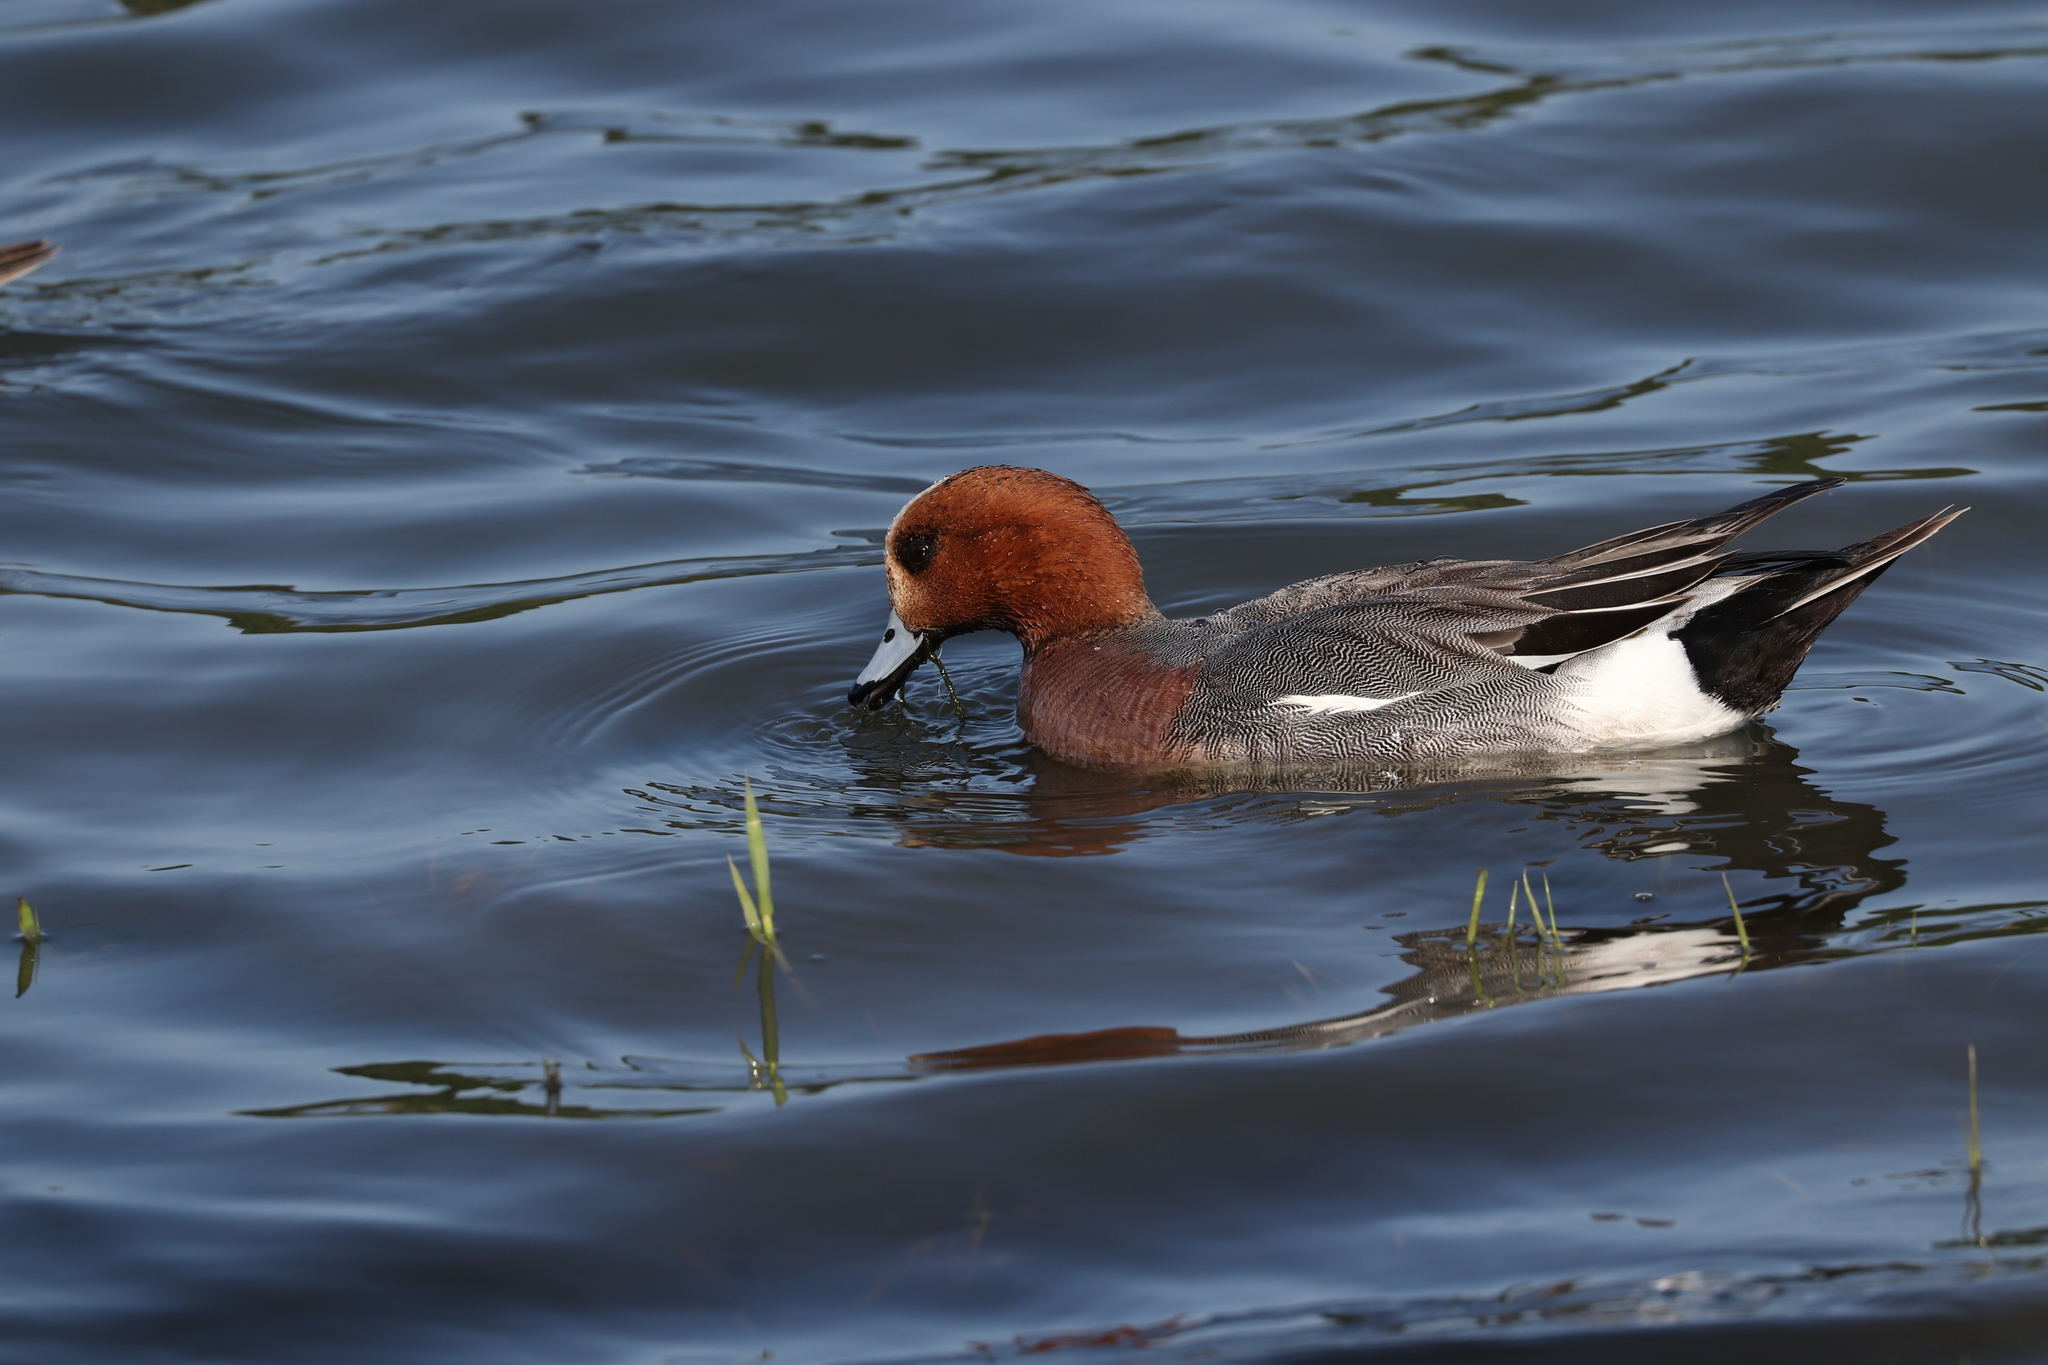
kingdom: Animalia
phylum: Chordata
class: Aves
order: Anseriformes
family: Anatidae
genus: Mareca
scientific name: Mareca penelope
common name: Eurasian wigeon
